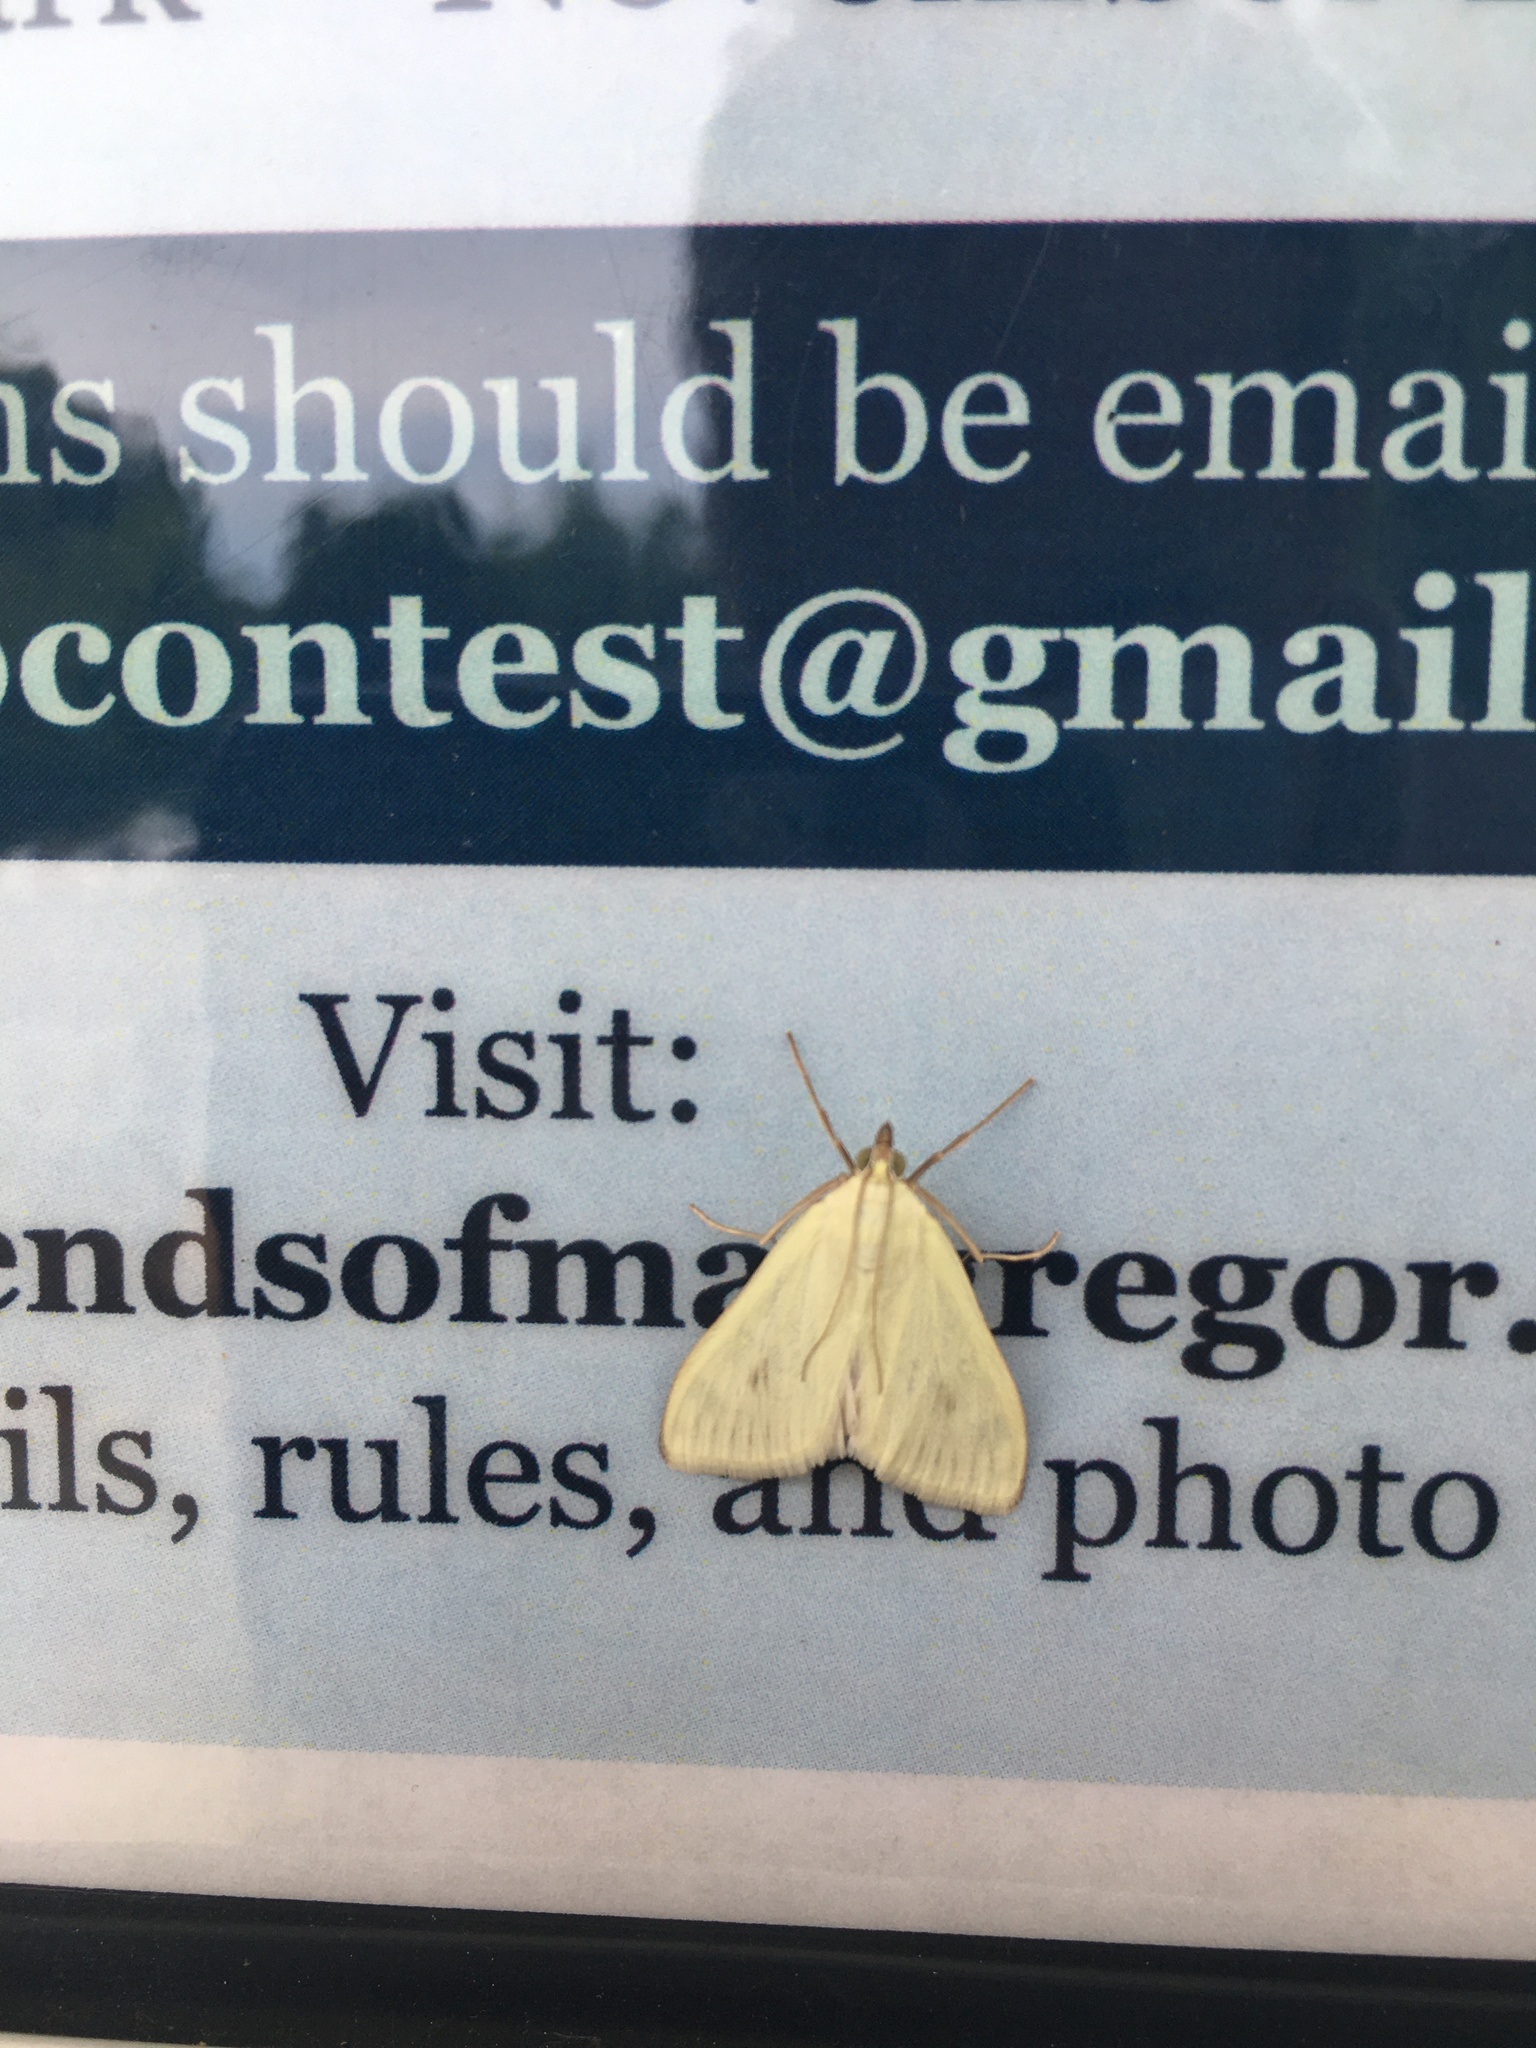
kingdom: Animalia
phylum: Arthropoda
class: Insecta
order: Lepidoptera
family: Crambidae
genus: Sitochroa
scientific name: Sitochroa palealis
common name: Greenish-yellow sitochroa moth
